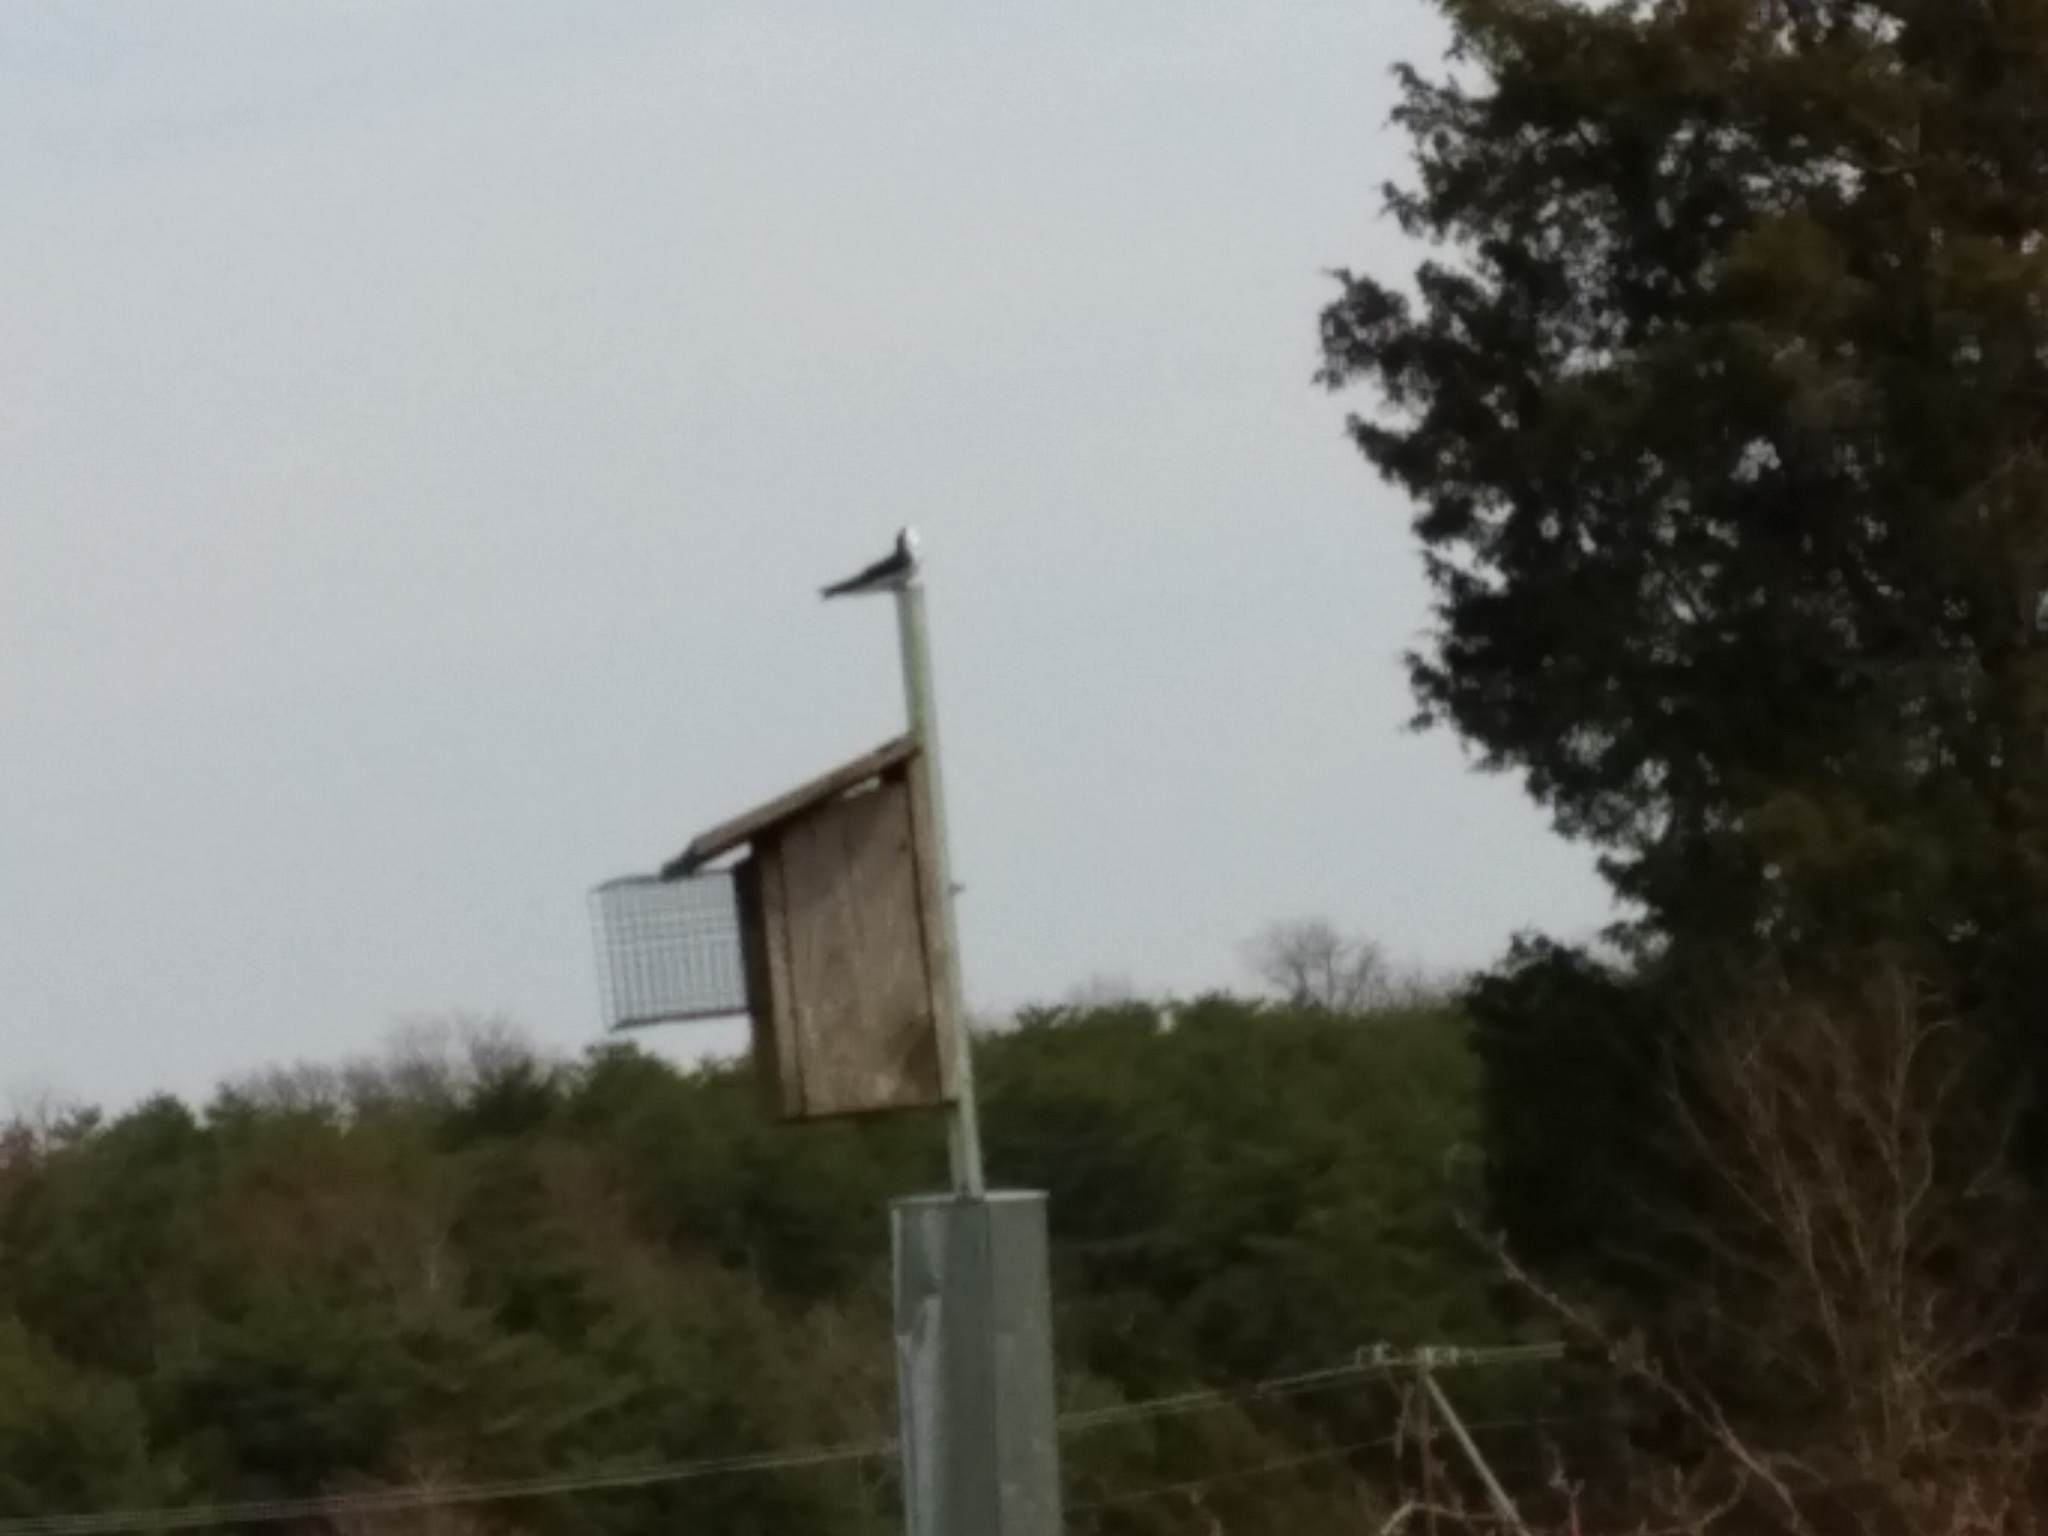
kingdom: Animalia
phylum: Chordata
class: Aves
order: Passeriformes
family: Hirundinidae
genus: Tachycineta
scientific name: Tachycineta bicolor
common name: Tree swallow
